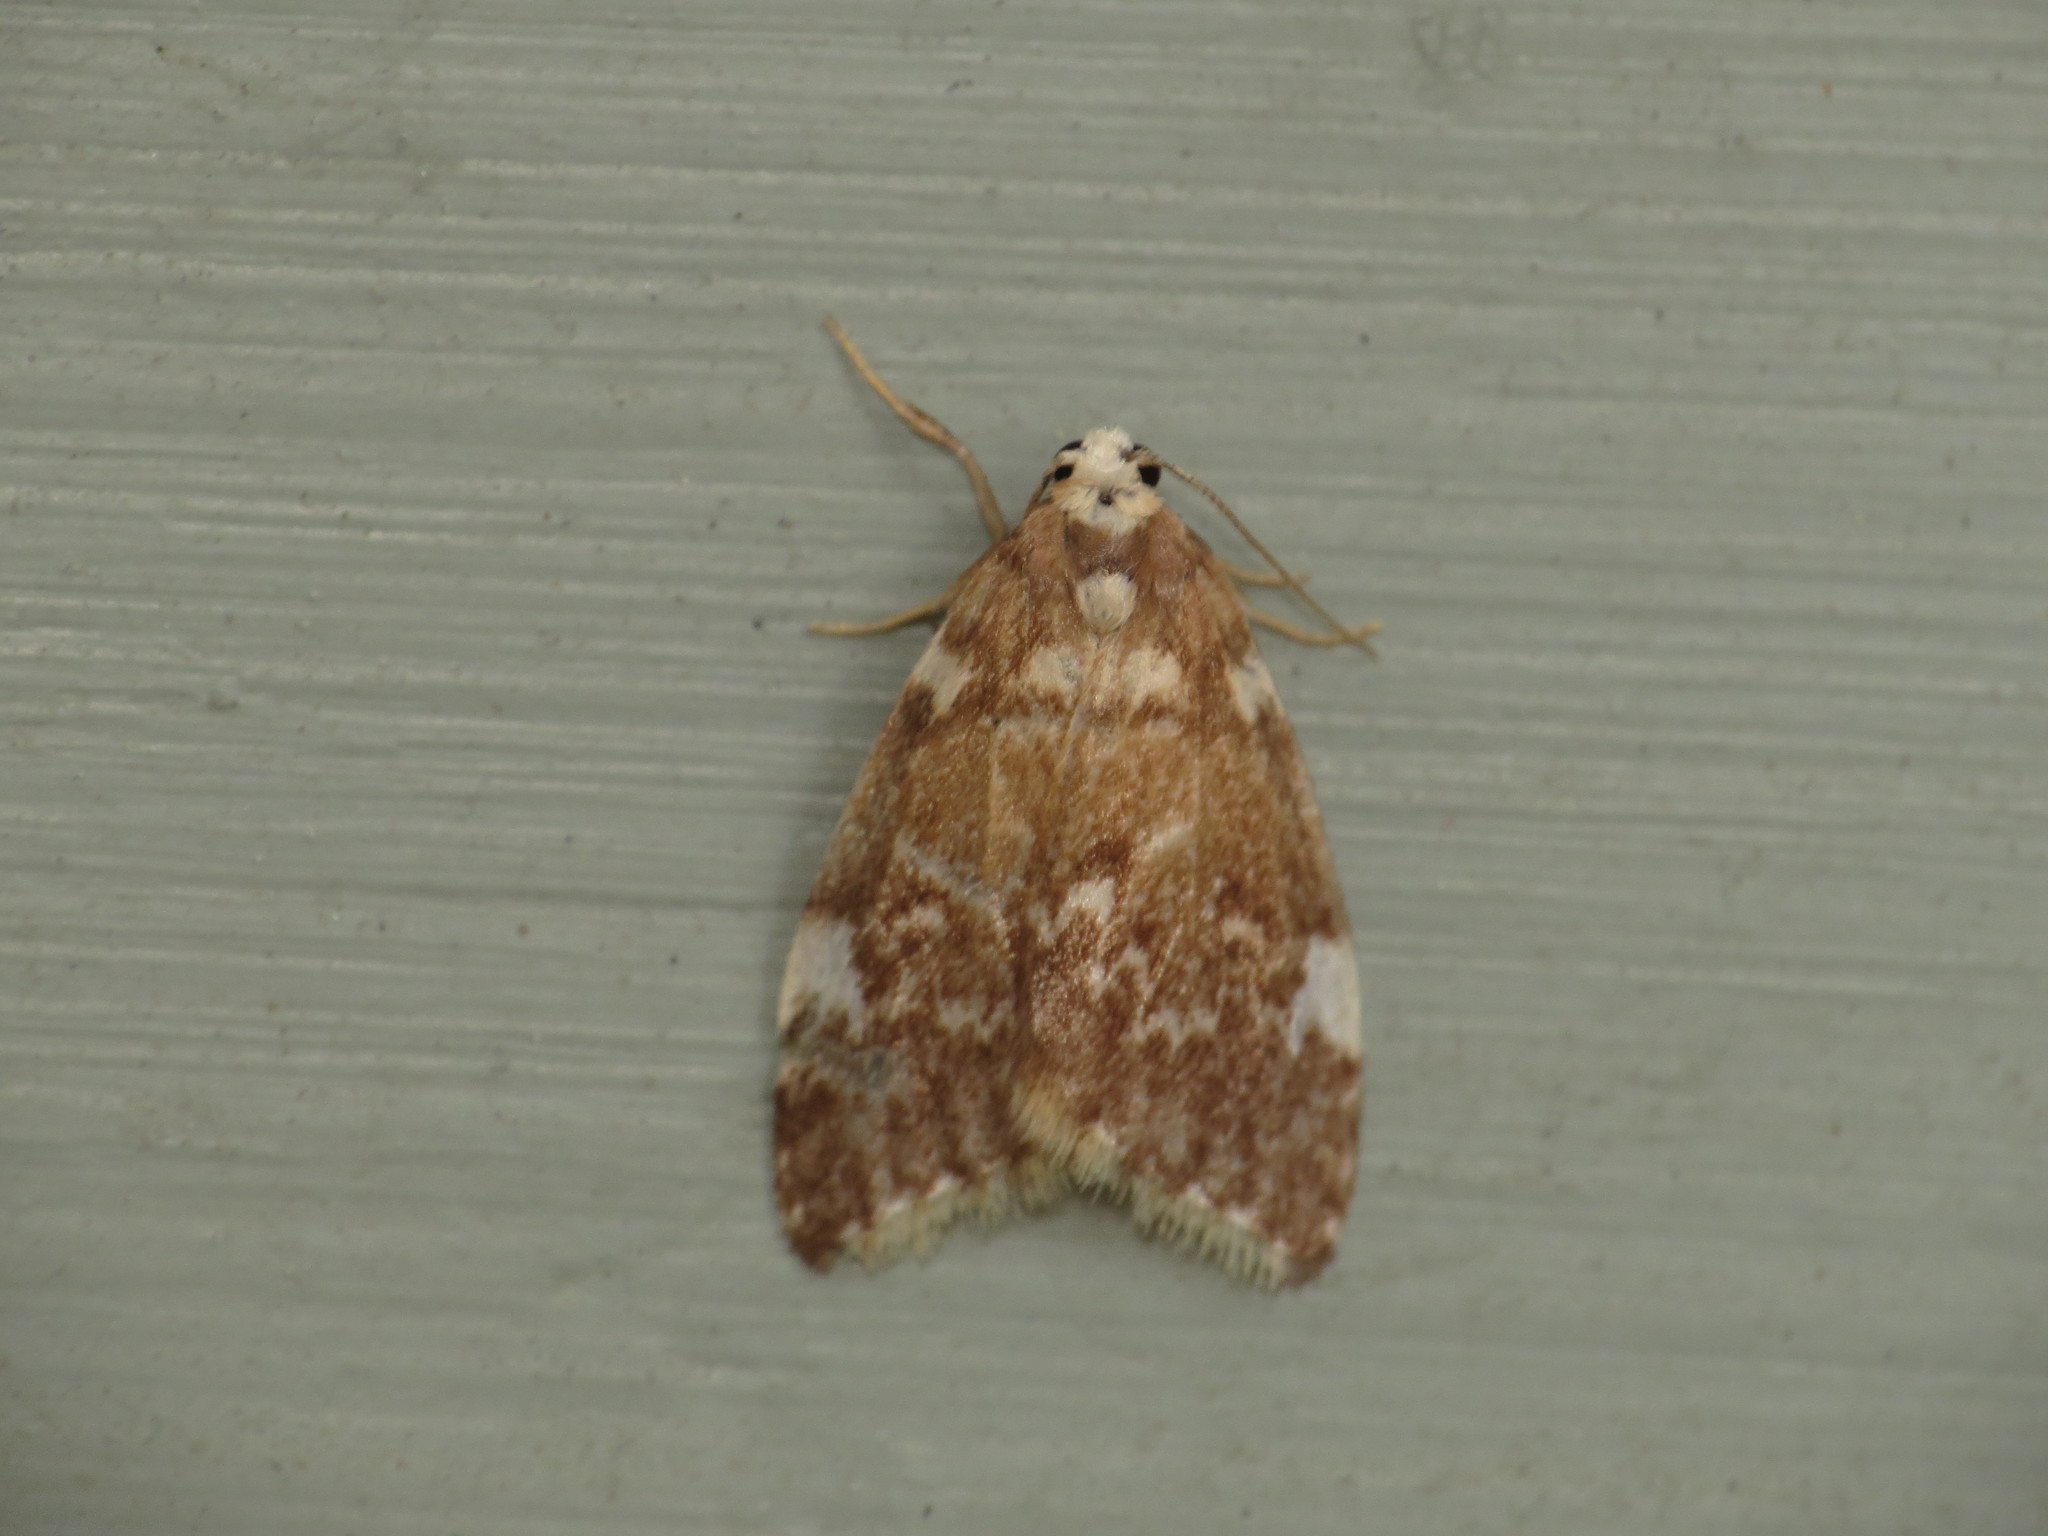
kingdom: Animalia
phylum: Arthropoda
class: Insecta
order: Lepidoptera
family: Erebidae
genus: Halone
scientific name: Halone pteridaula
